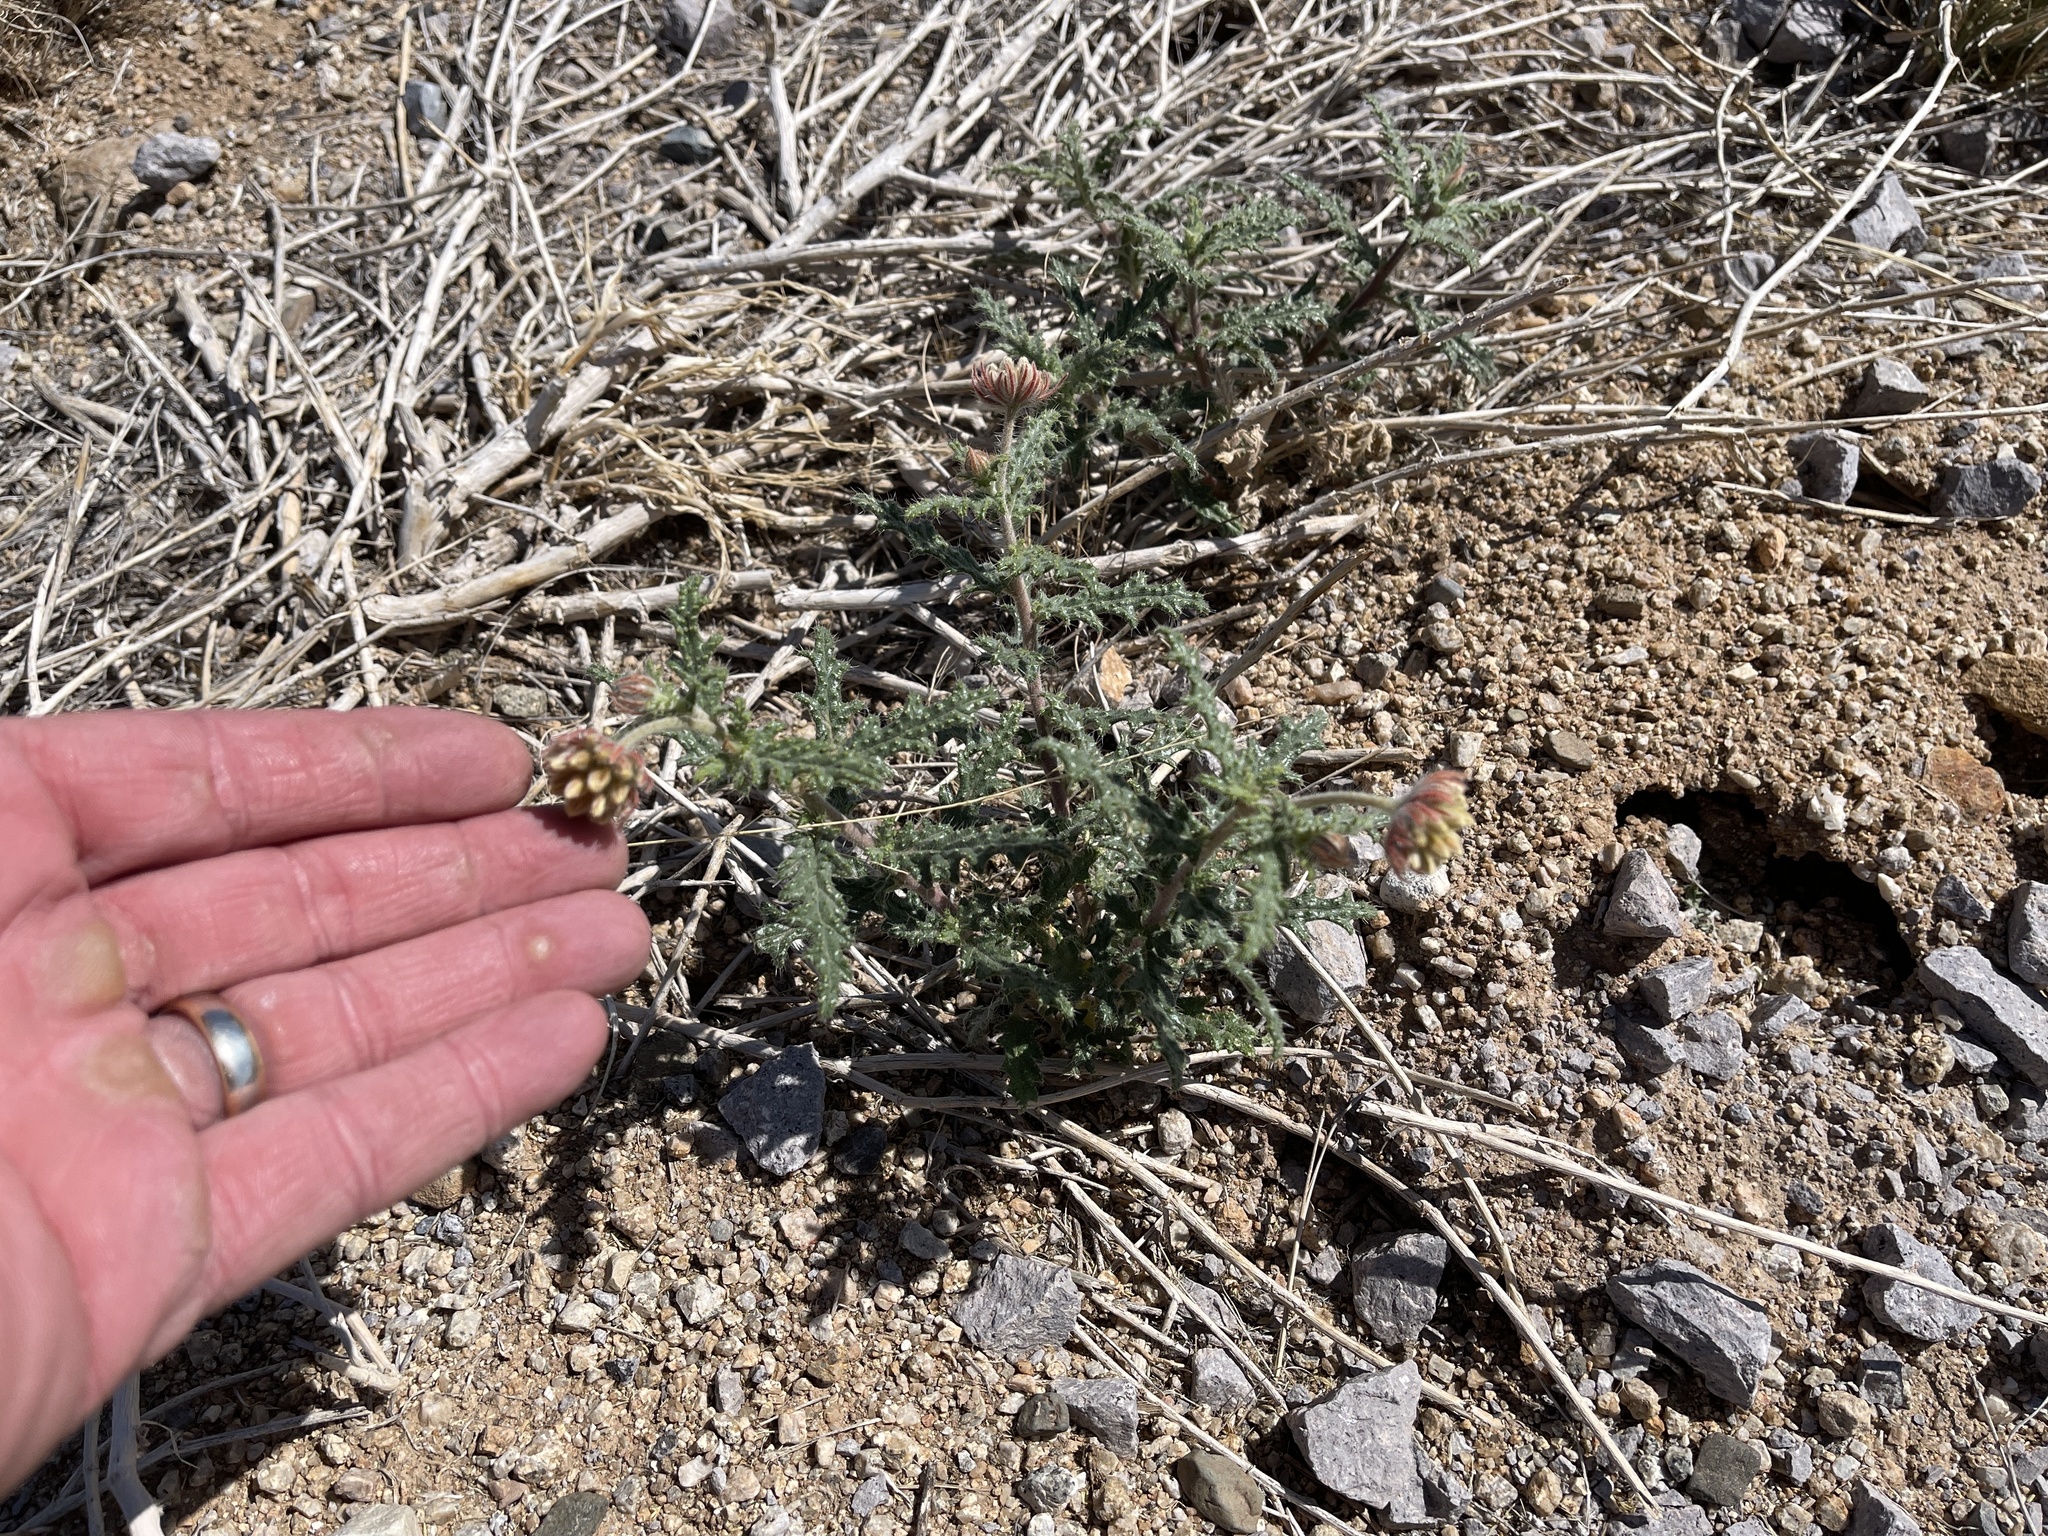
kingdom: Plantae
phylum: Tracheophyta
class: Magnoliopsida
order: Cornales
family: Loasaceae
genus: Cevallia
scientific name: Cevallia sinuata
